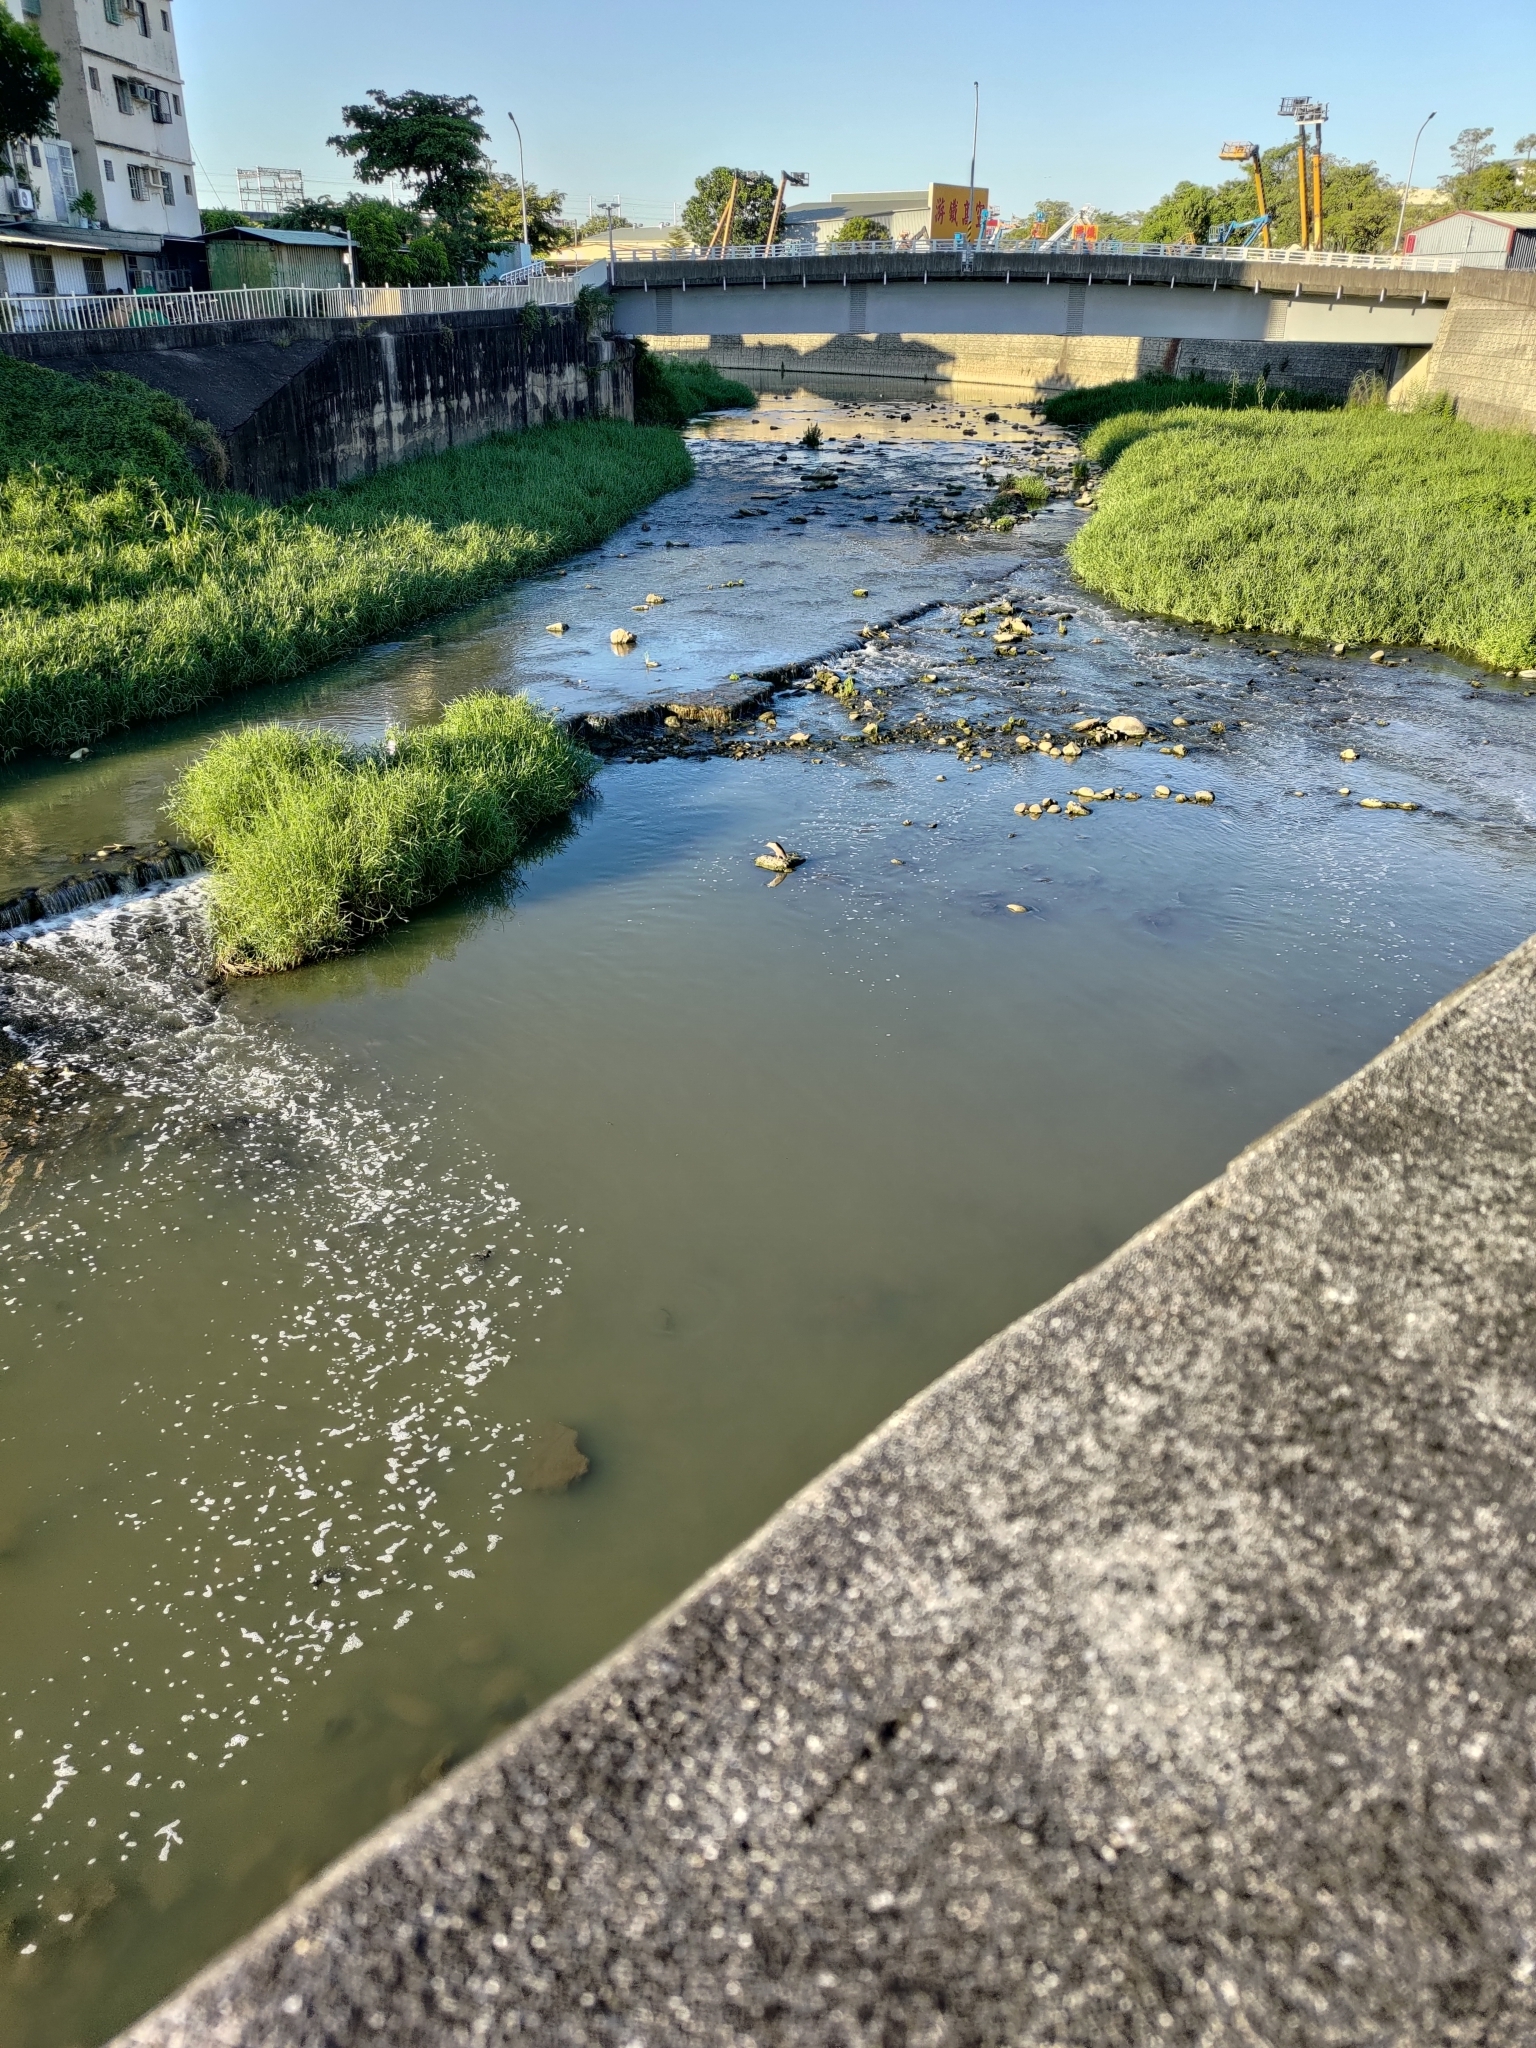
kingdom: Animalia
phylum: Chordata
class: Aves
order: Pelecaniformes
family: Ardeidae
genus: Nycticorax
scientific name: Nycticorax nycticorax
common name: Black-crowned night heron
